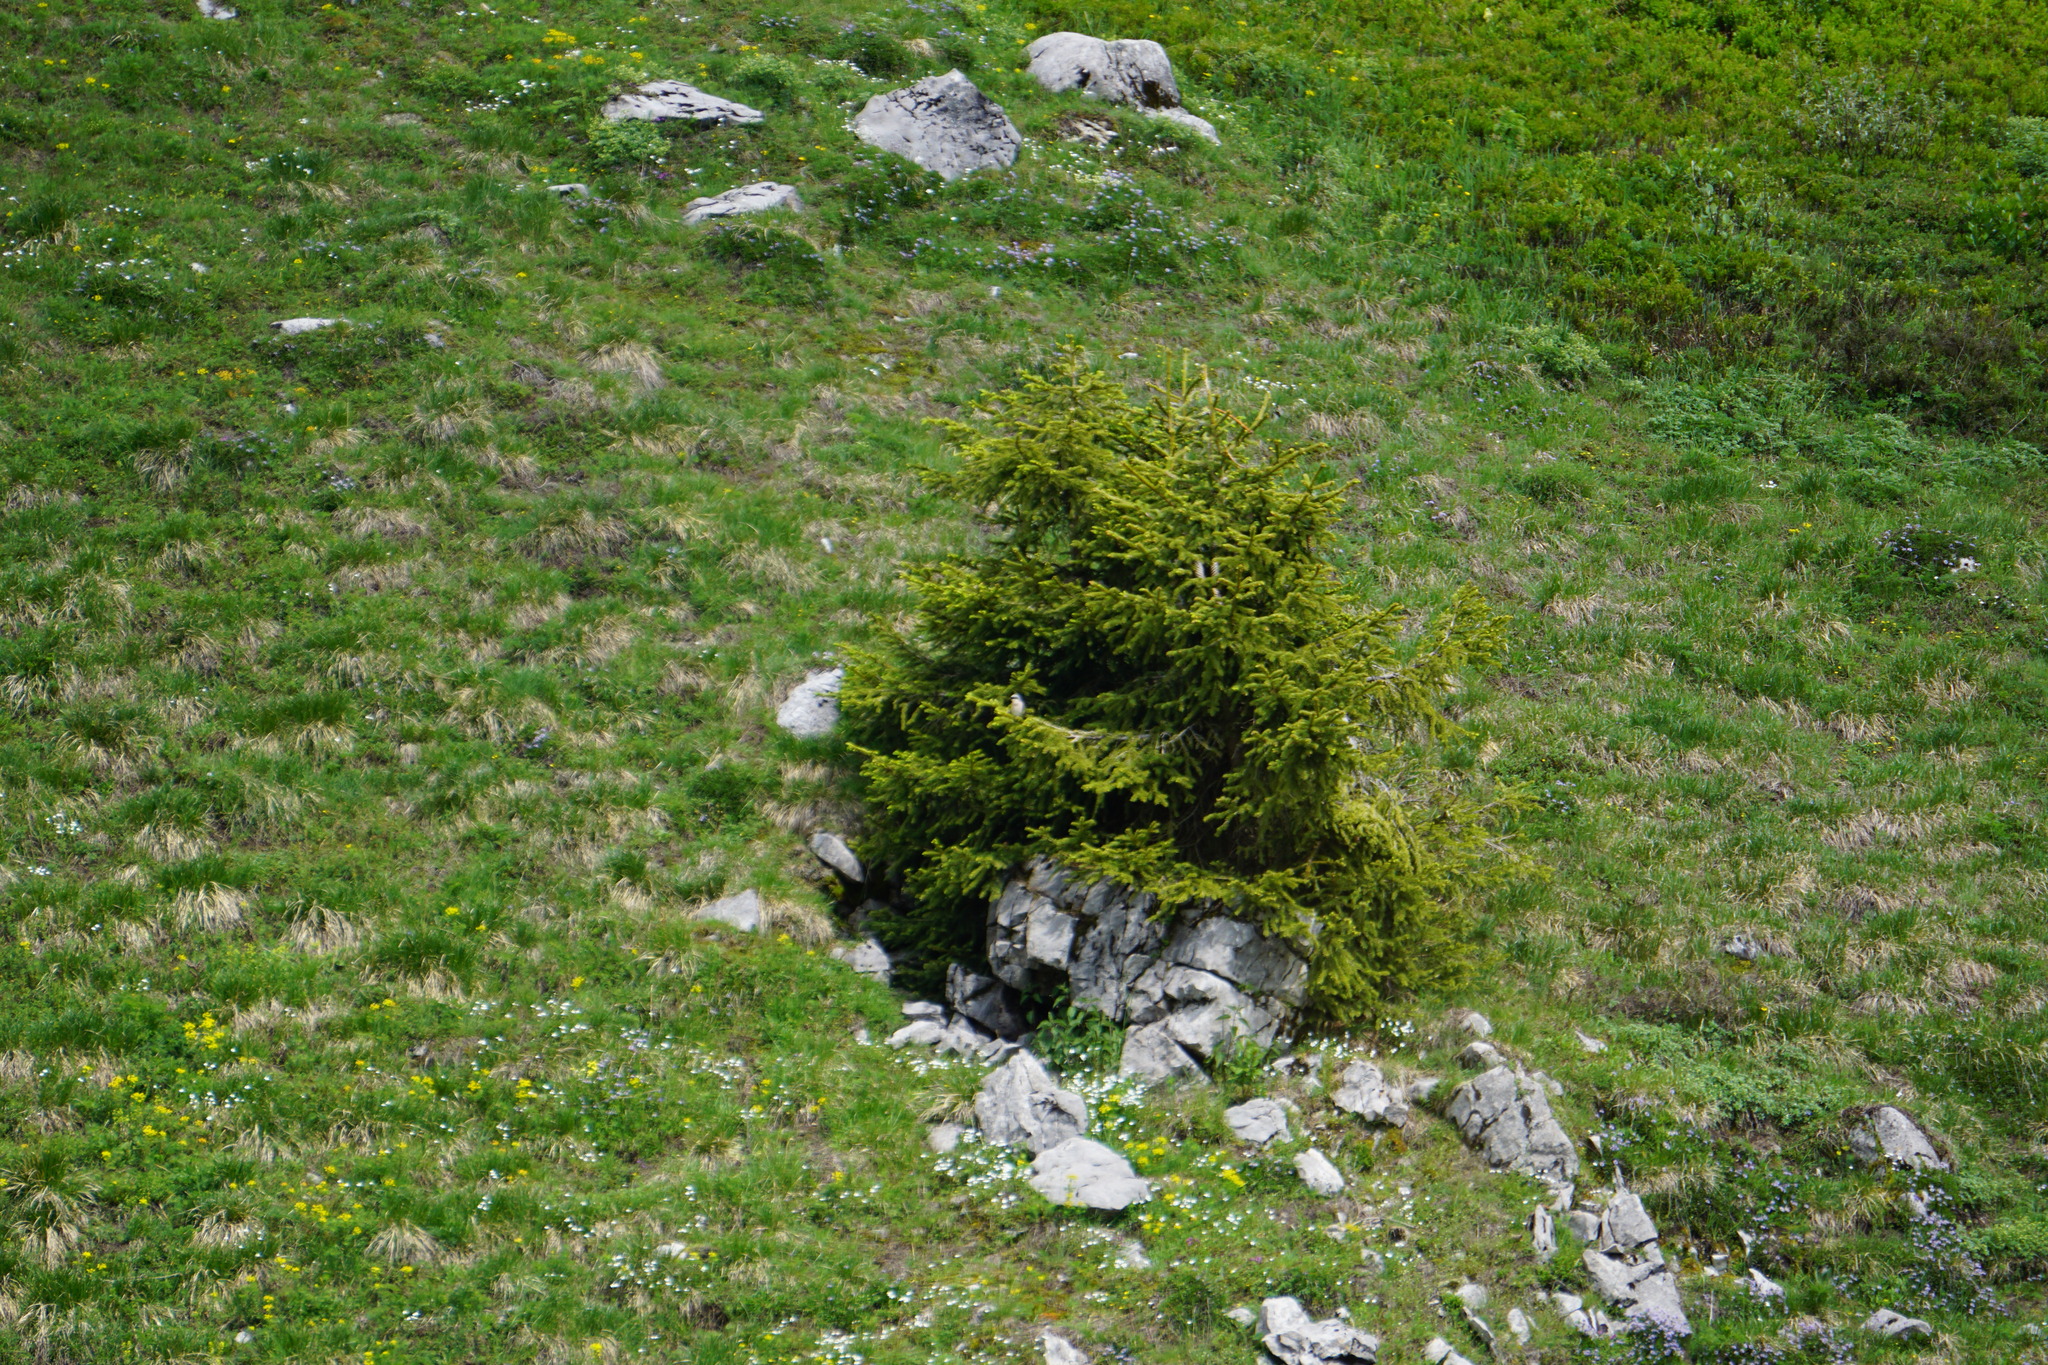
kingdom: Animalia
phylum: Chordata
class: Aves
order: Passeriformes
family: Laniidae
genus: Lanius
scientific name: Lanius collurio
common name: Red-backed shrike
